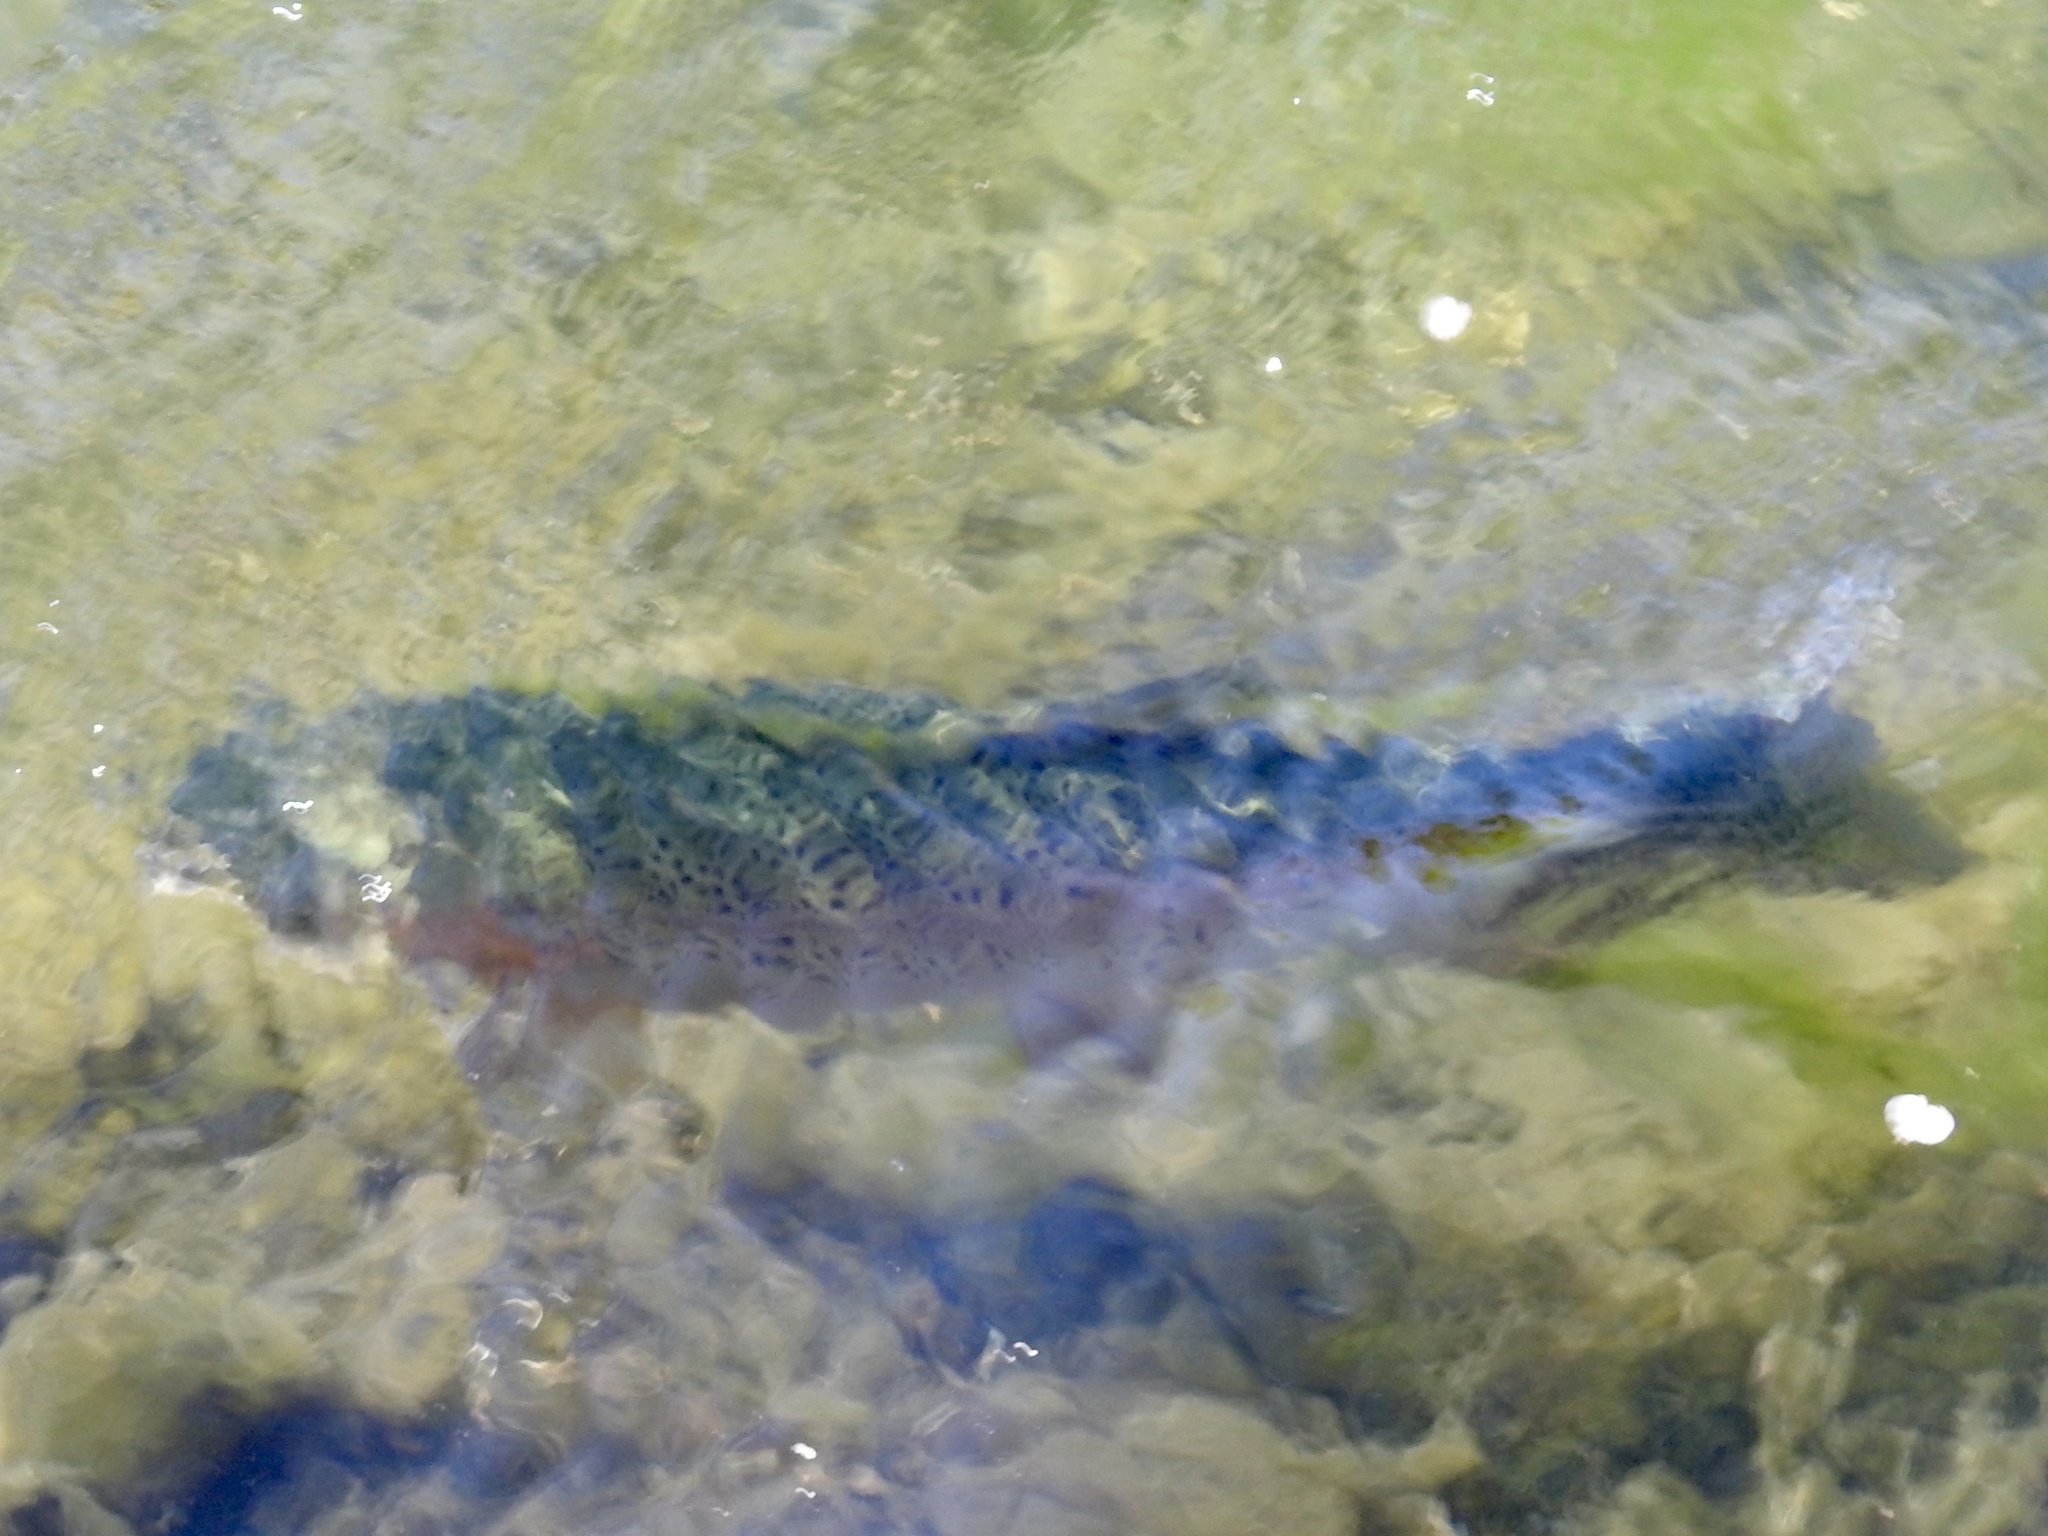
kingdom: Animalia
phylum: Chordata
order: Salmoniformes
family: Salmonidae
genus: Oncorhynchus
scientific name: Oncorhynchus mykiss
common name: Rainbow trout
